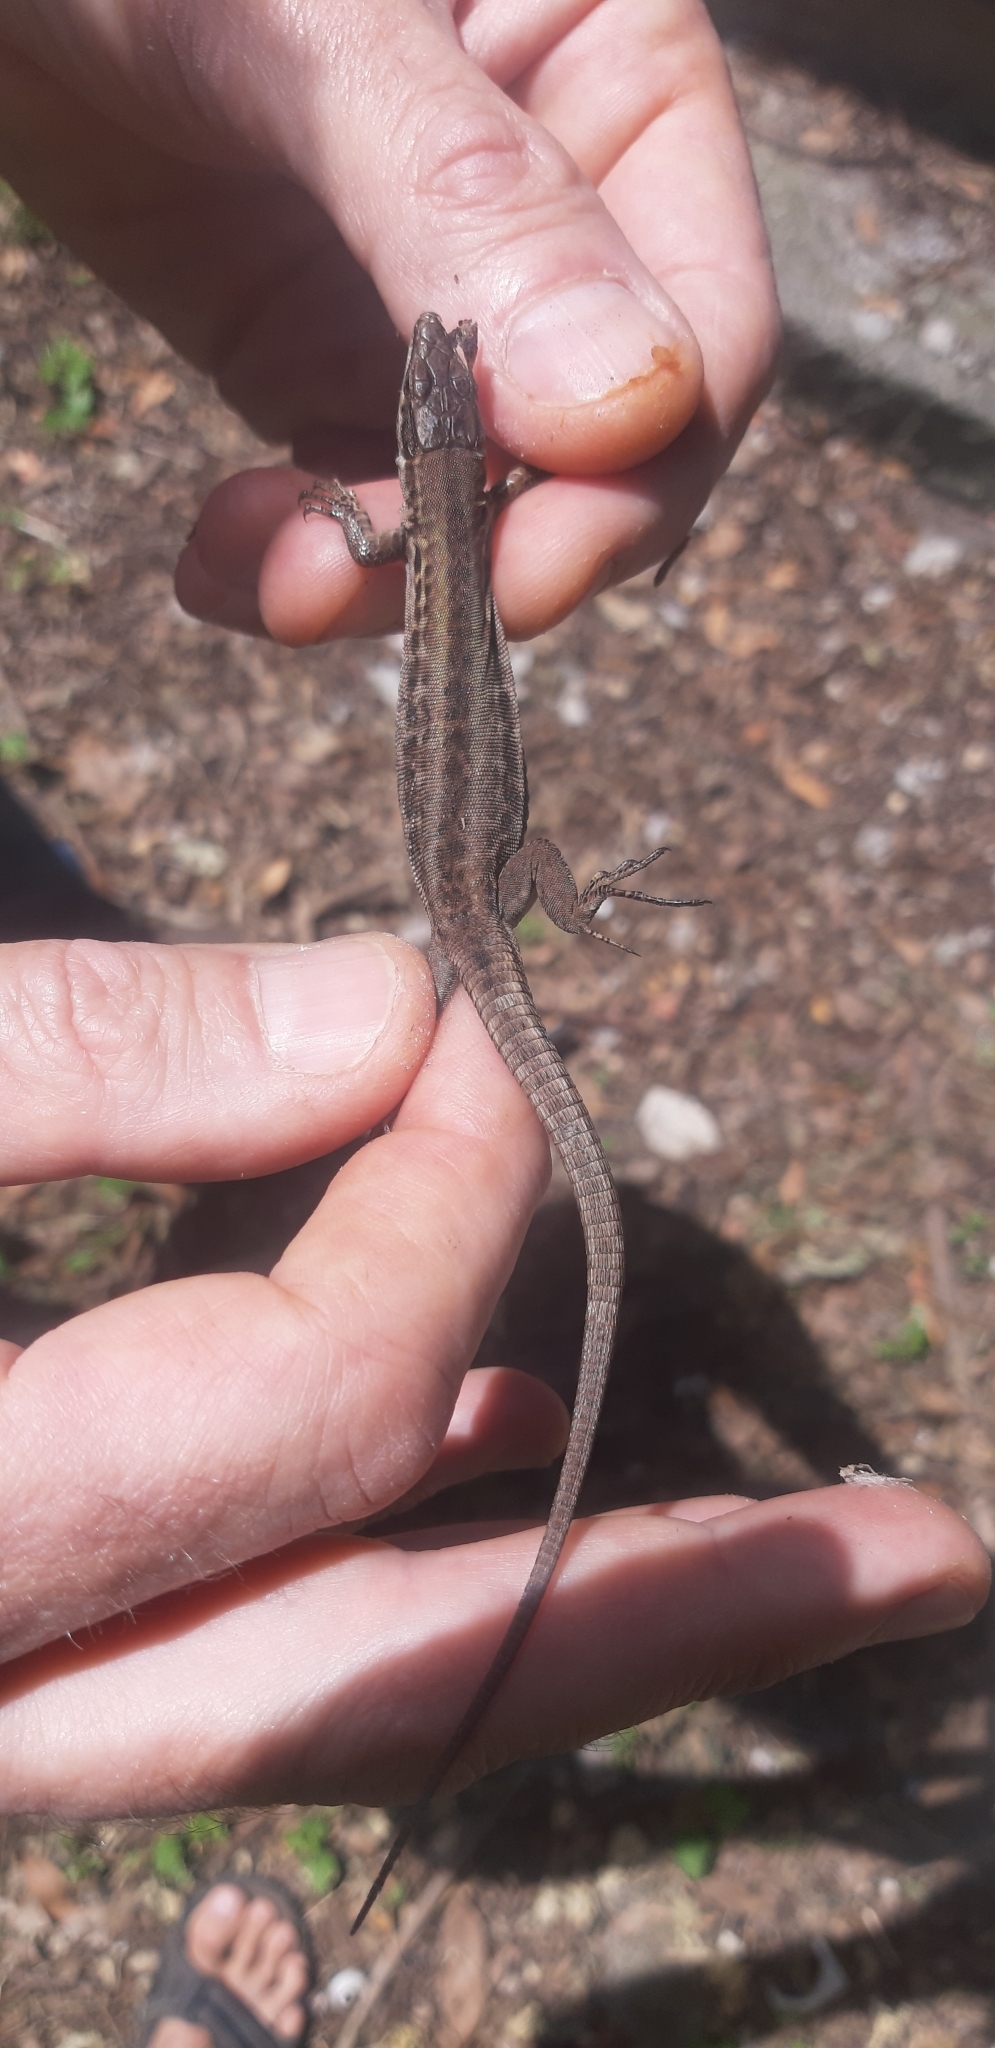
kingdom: Animalia
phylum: Chordata
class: Squamata
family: Lacertidae
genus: Podarcis
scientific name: Podarcis siculus
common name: Italian wall lizard
